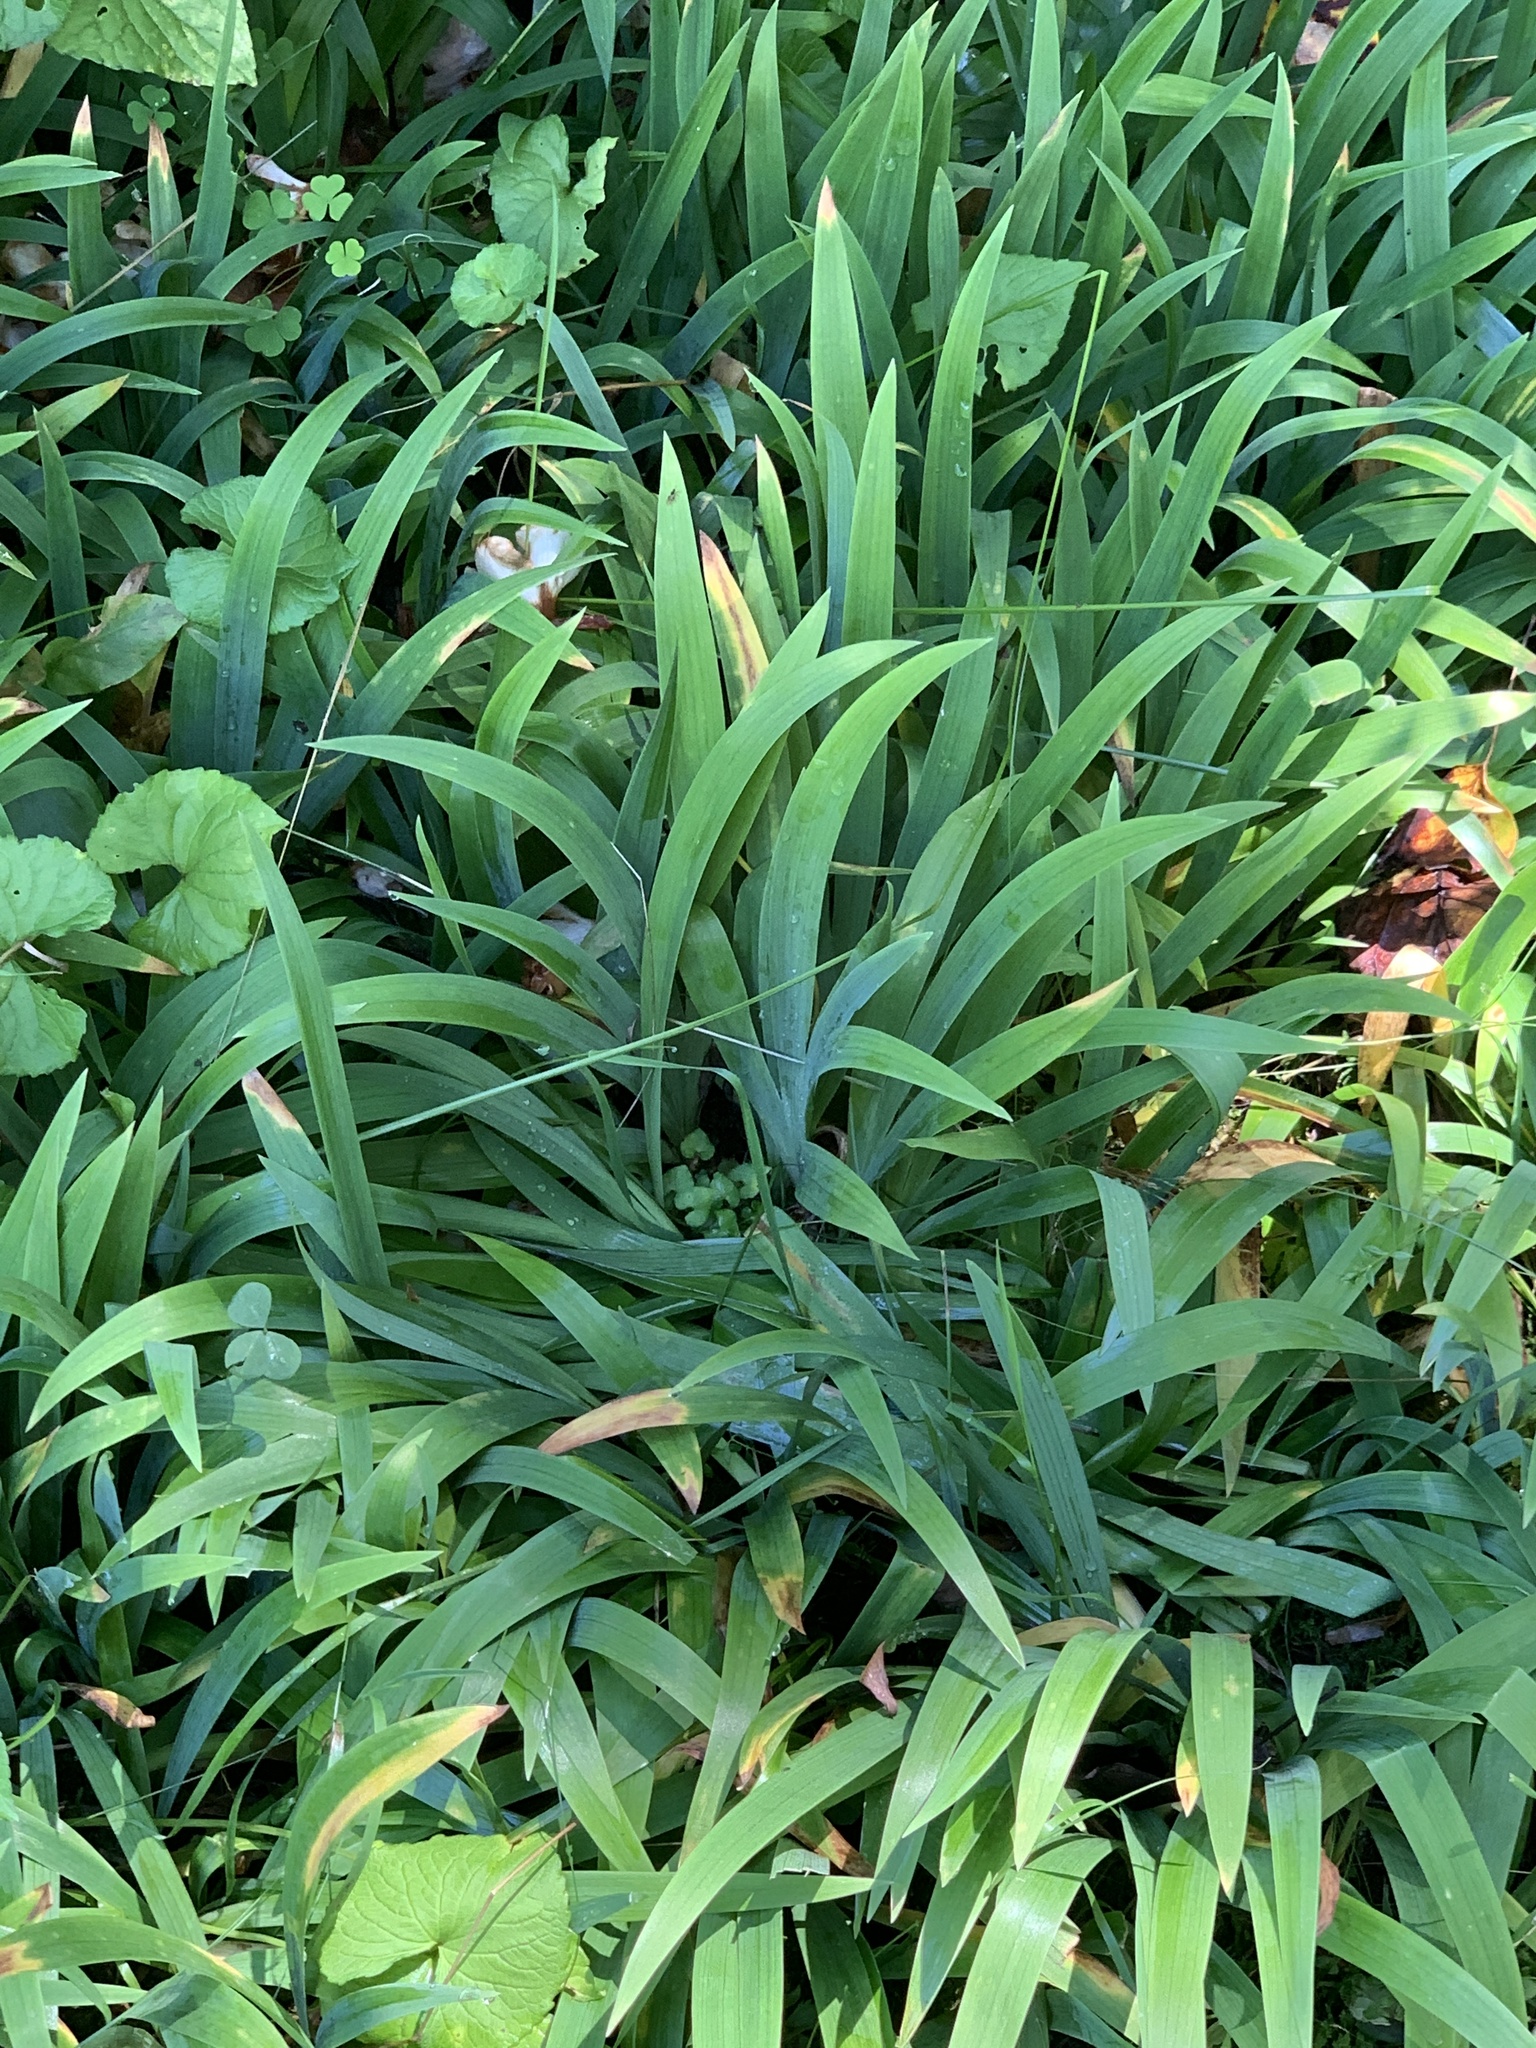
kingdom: Plantae
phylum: Tracheophyta
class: Liliopsida
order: Asparagales
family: Iridaceae
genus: Iris
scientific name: Iris cristata
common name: Crested iris
